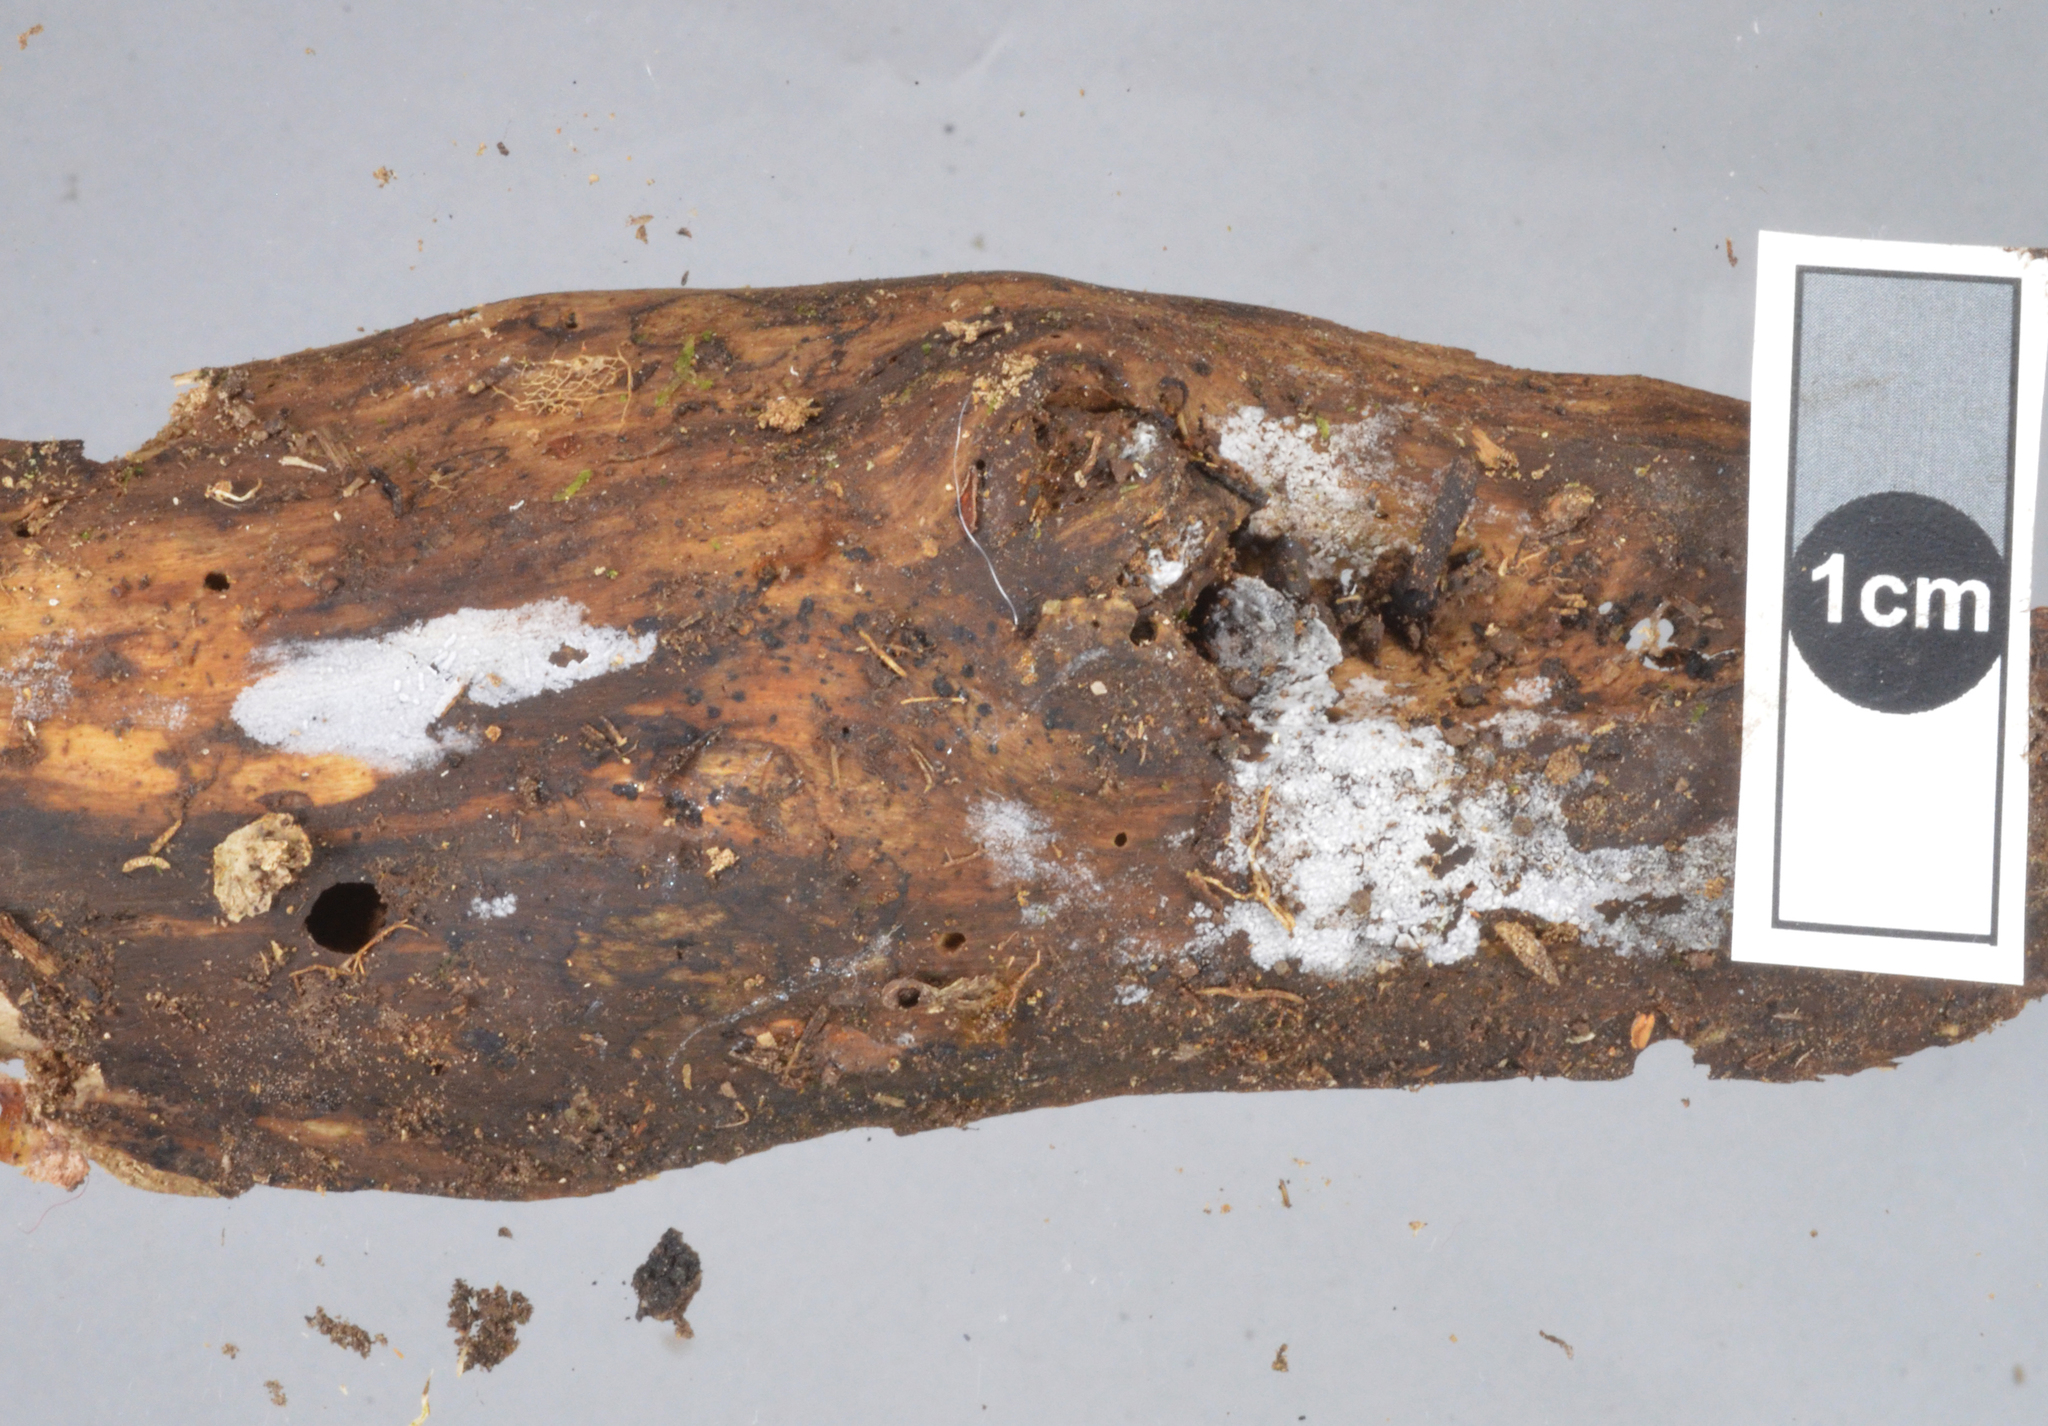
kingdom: Fungi
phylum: Basidiomycota
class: Agaricomycetes
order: Trechisporales
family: Hydnodontaceae
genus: Subulicystidium
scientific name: Subulicystidium longisporum
